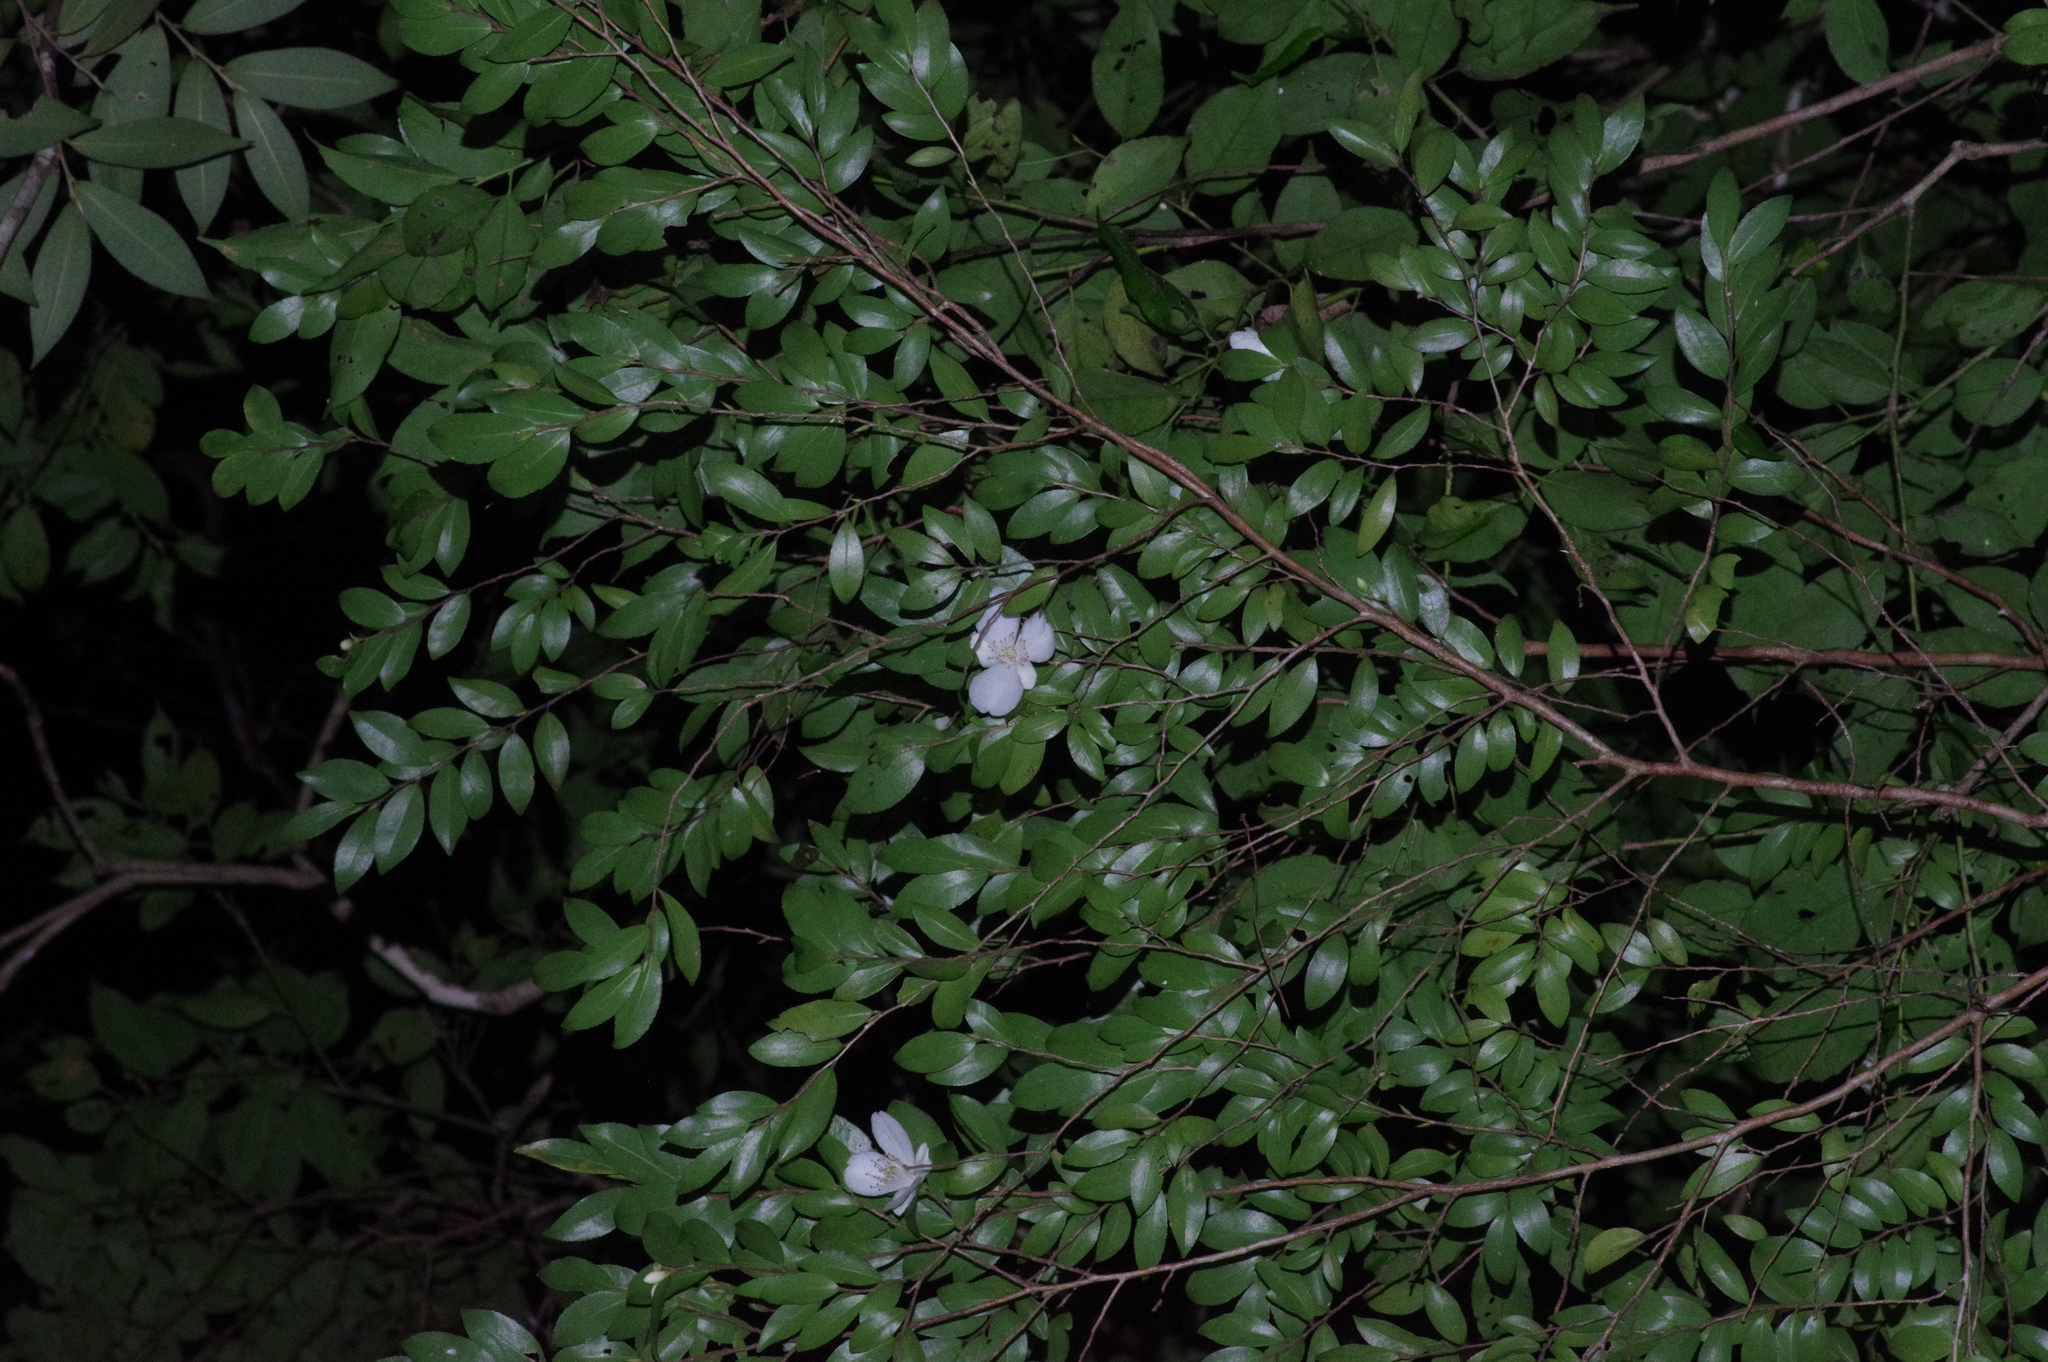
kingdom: Plantae
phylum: Tracheophyta
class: Magnoliopsida
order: Ericales
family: Theaceae
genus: Camellia
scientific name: Camellia lutchuensis
